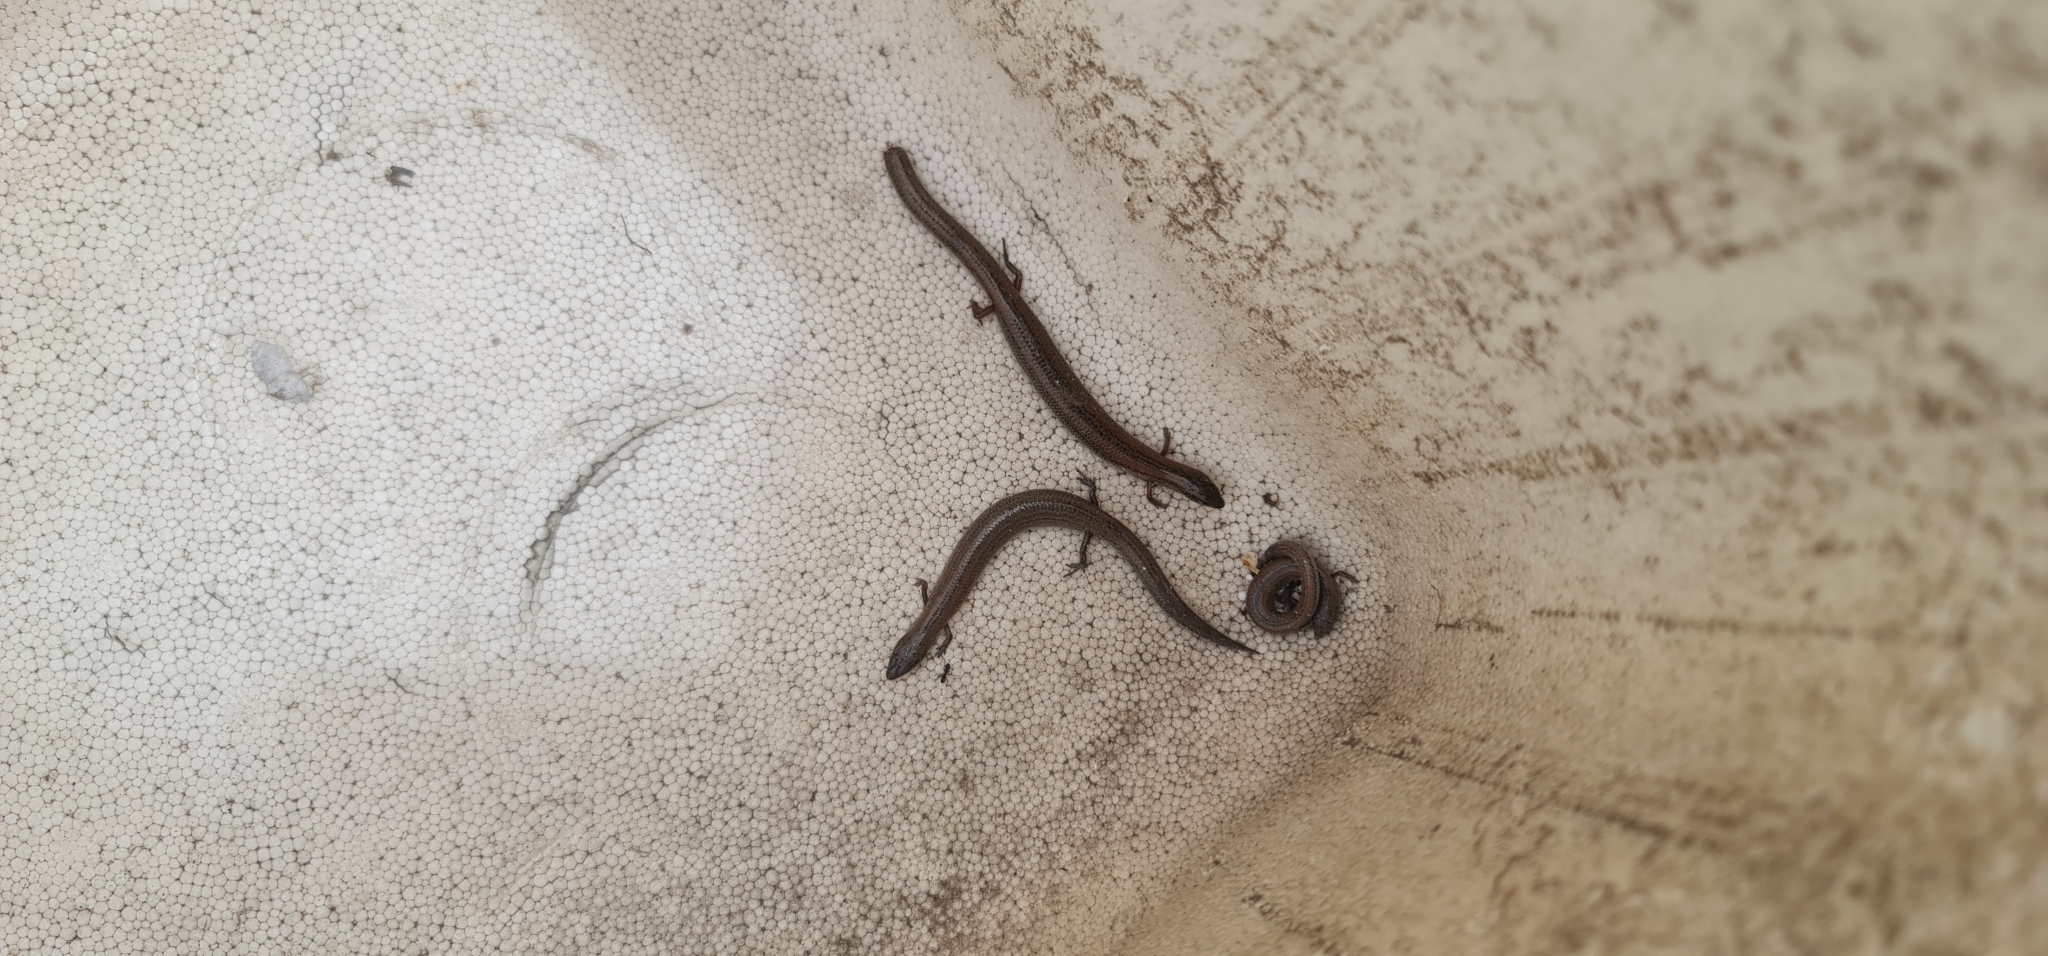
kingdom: Animalia
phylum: Chordata
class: Squamata
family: Scincidae
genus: Hemiergis
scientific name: Hemiergis peronii
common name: Lowlands earless skink
